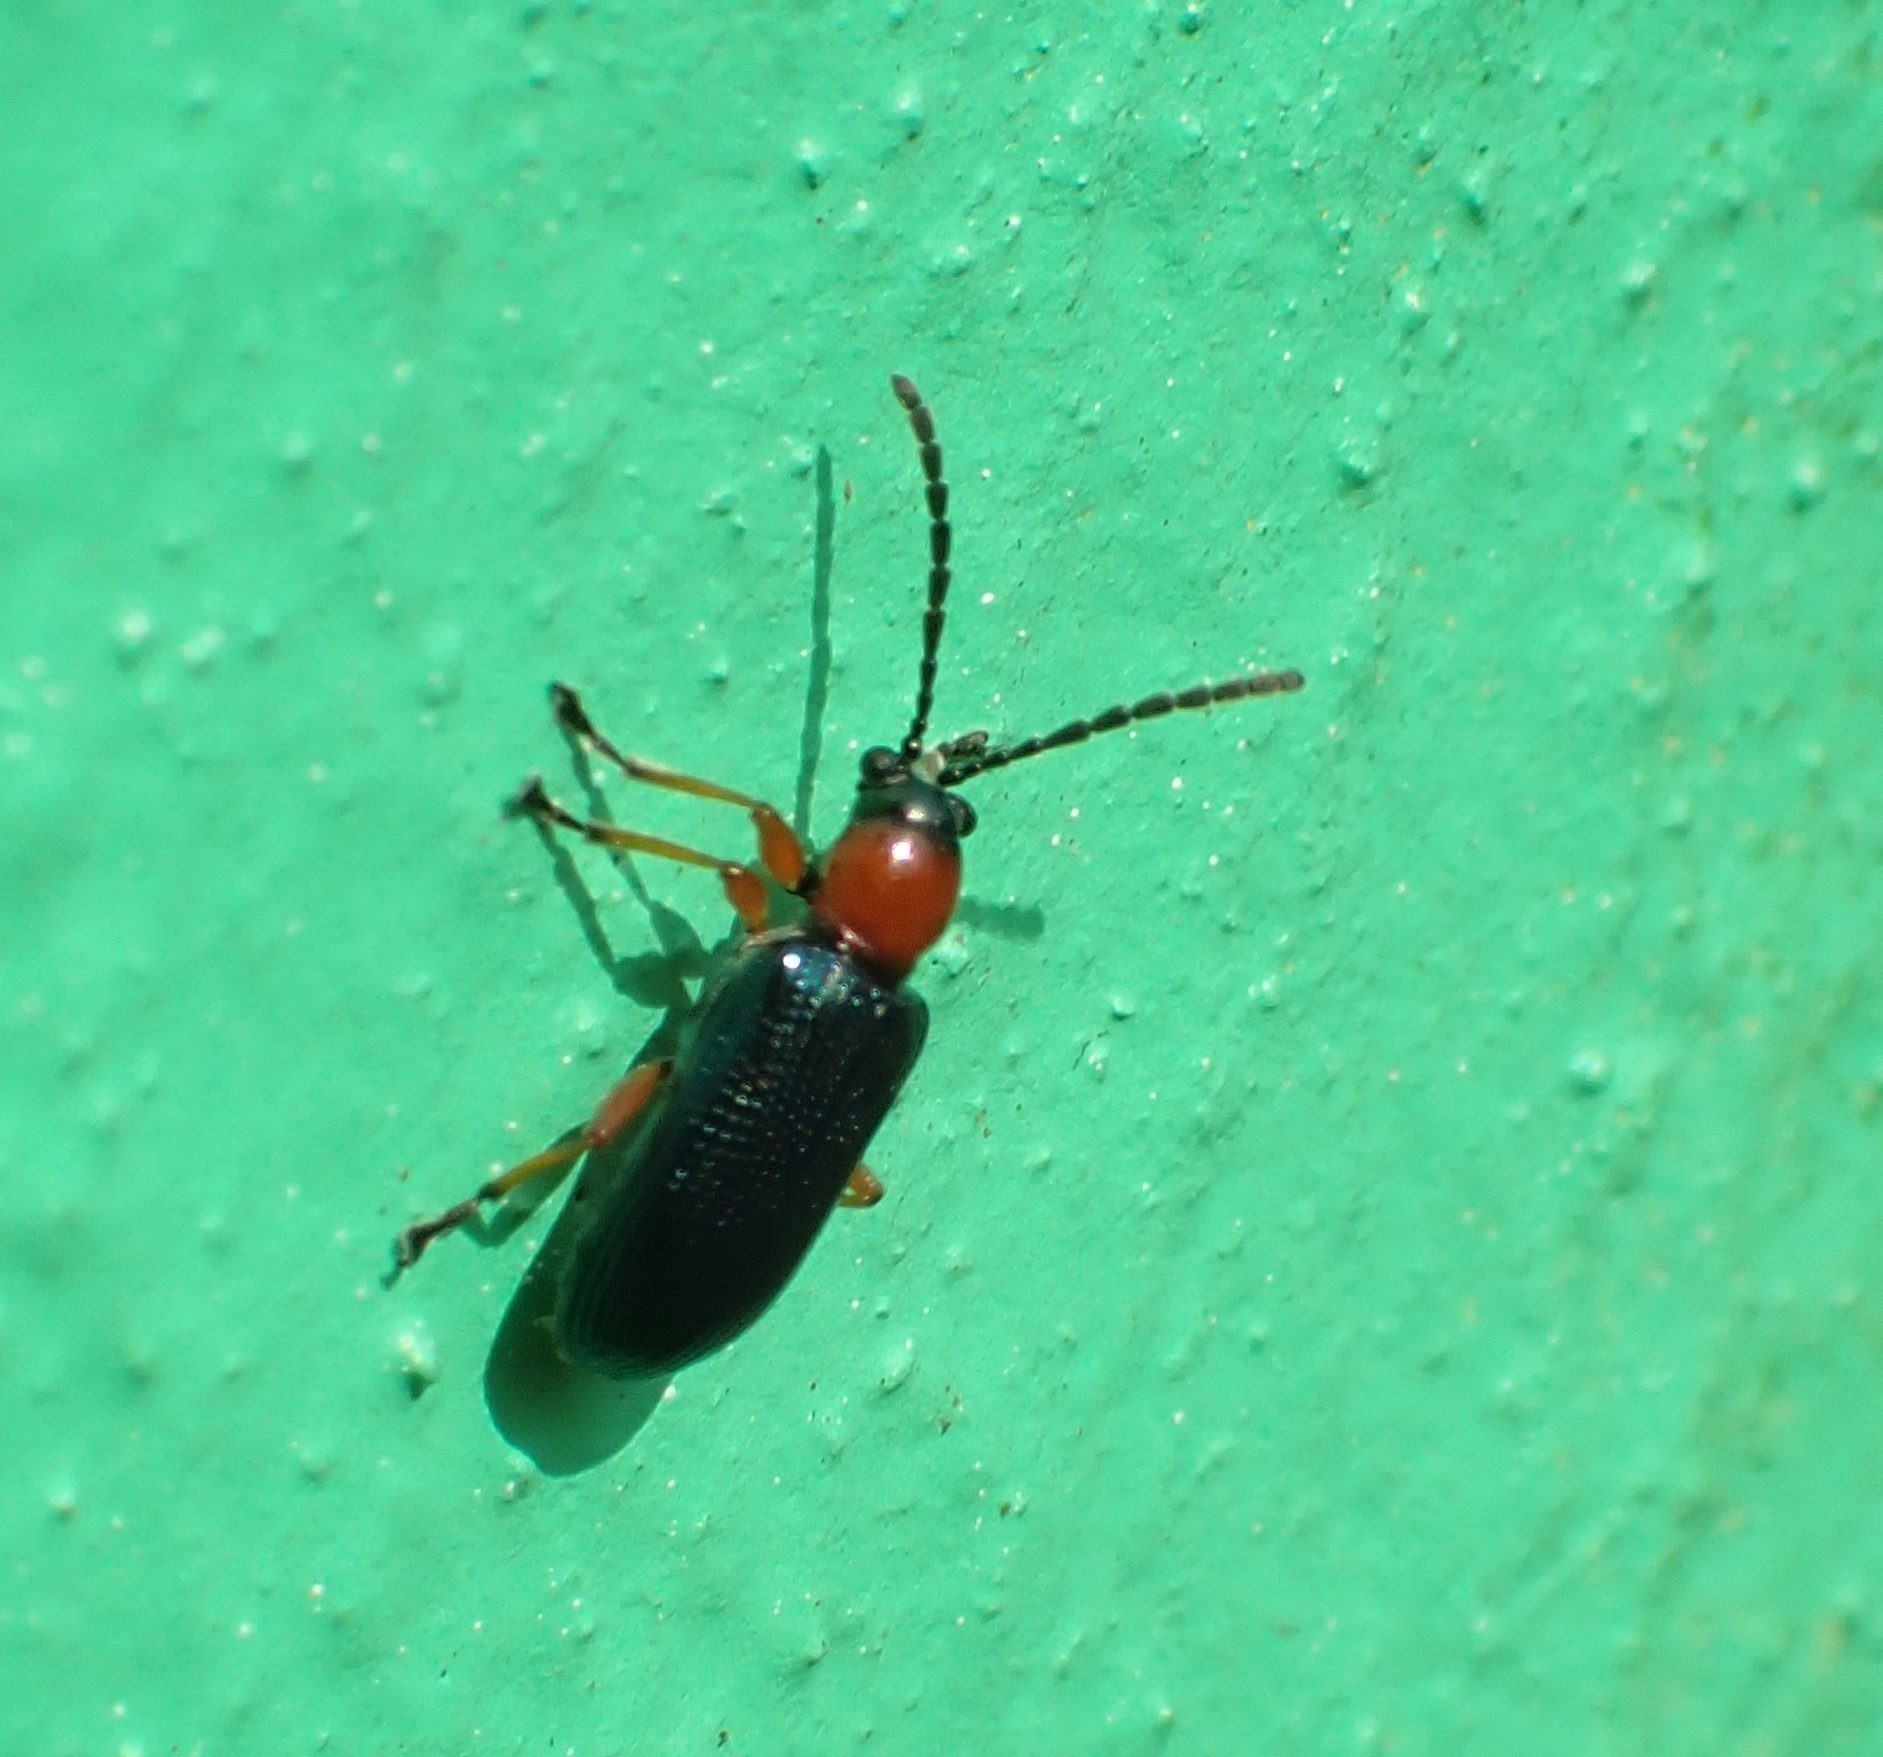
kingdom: Animalia
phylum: Arthropoda
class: Insecta
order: Coleoptera
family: Chrysomelidae
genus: Oulema
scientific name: Oulema
